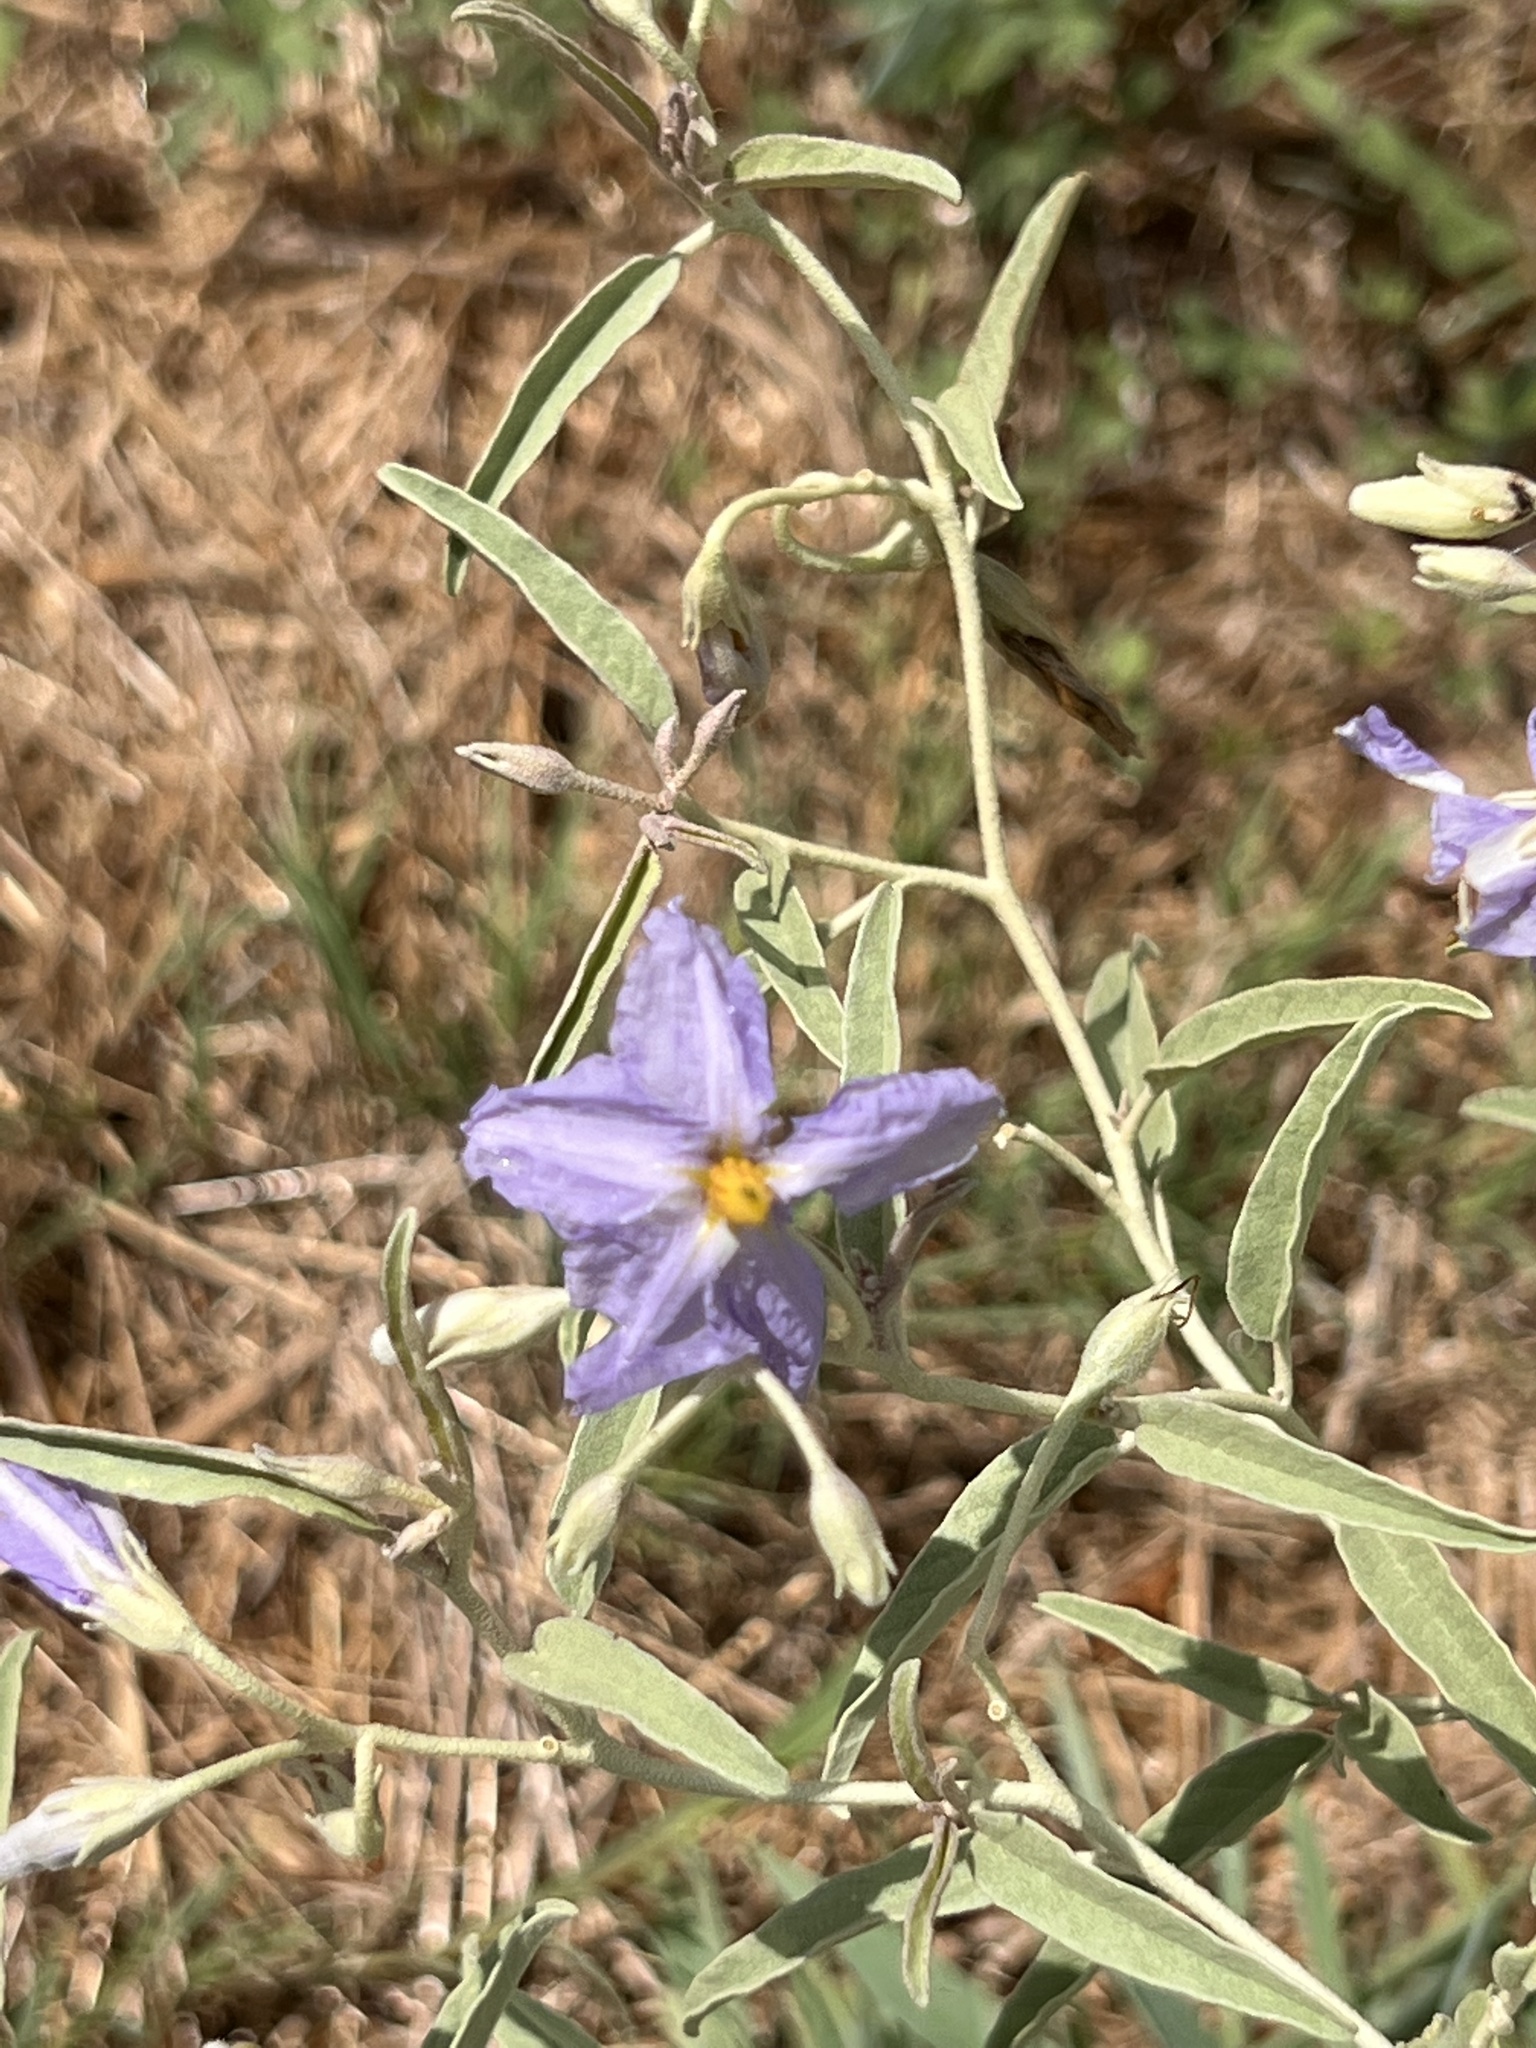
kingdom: Plantae
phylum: Tracheophyta
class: Magnoliopsida
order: Solanales
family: Solanaceae
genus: Solanum
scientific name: Solanum elaeagnifolium
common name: Silverleaf nightshade
